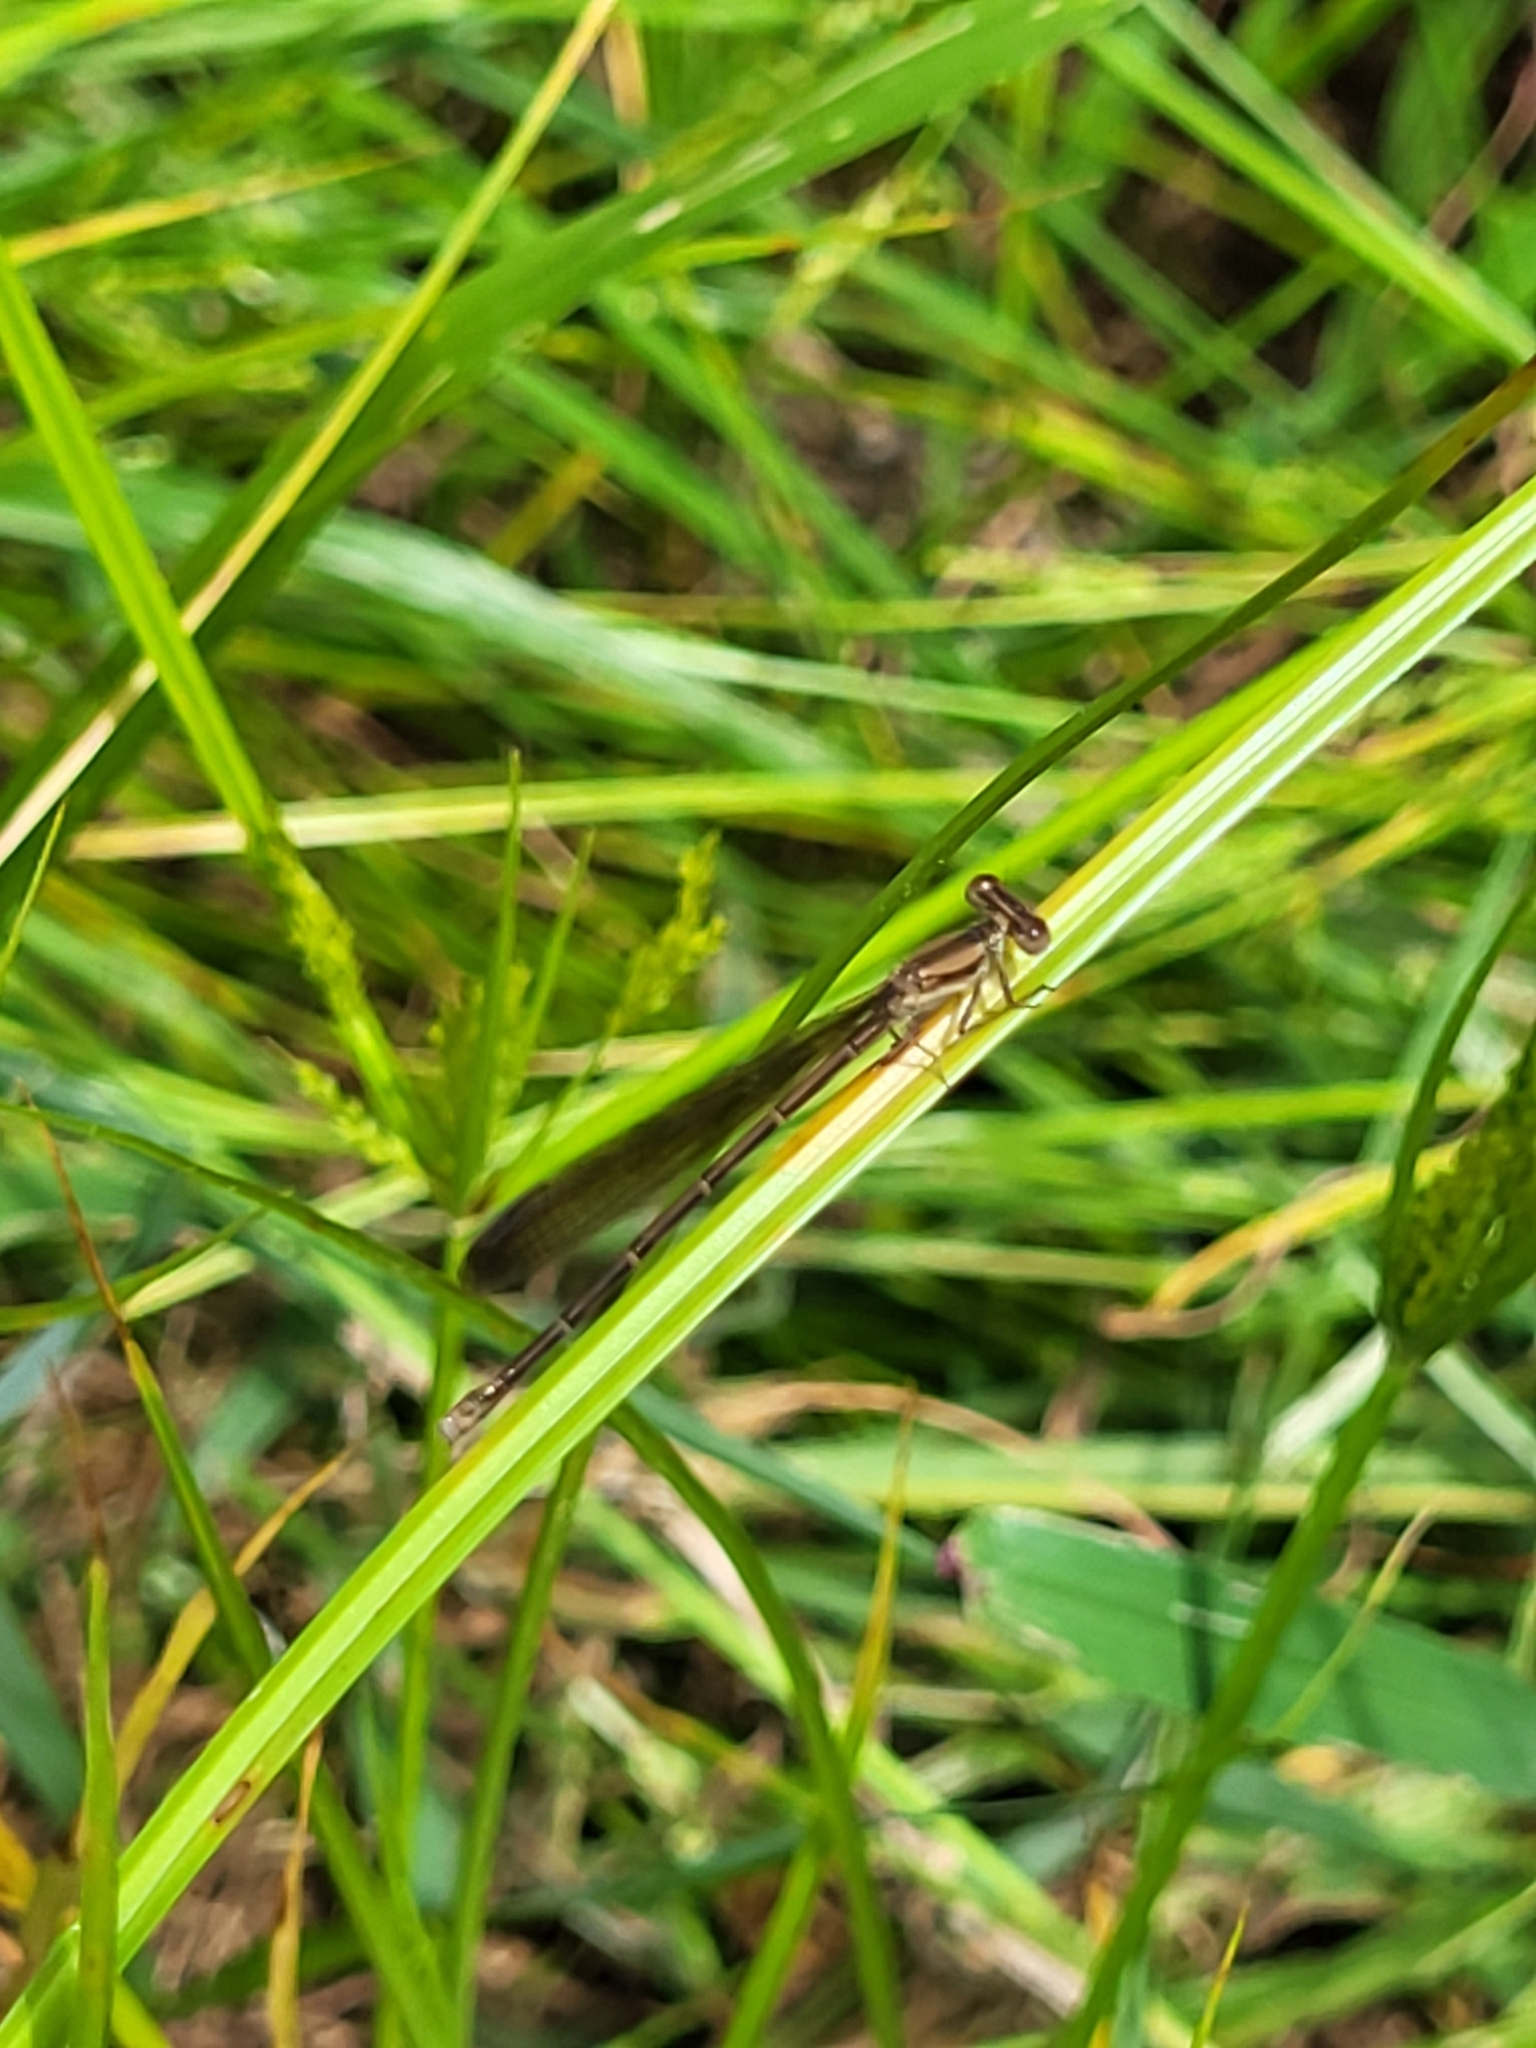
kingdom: Animalia
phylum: Arthropoda
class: Insecta
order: Odonata
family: Coenagrionidae
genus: Argia
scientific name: Argia fumipennis
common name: Variable dancer
